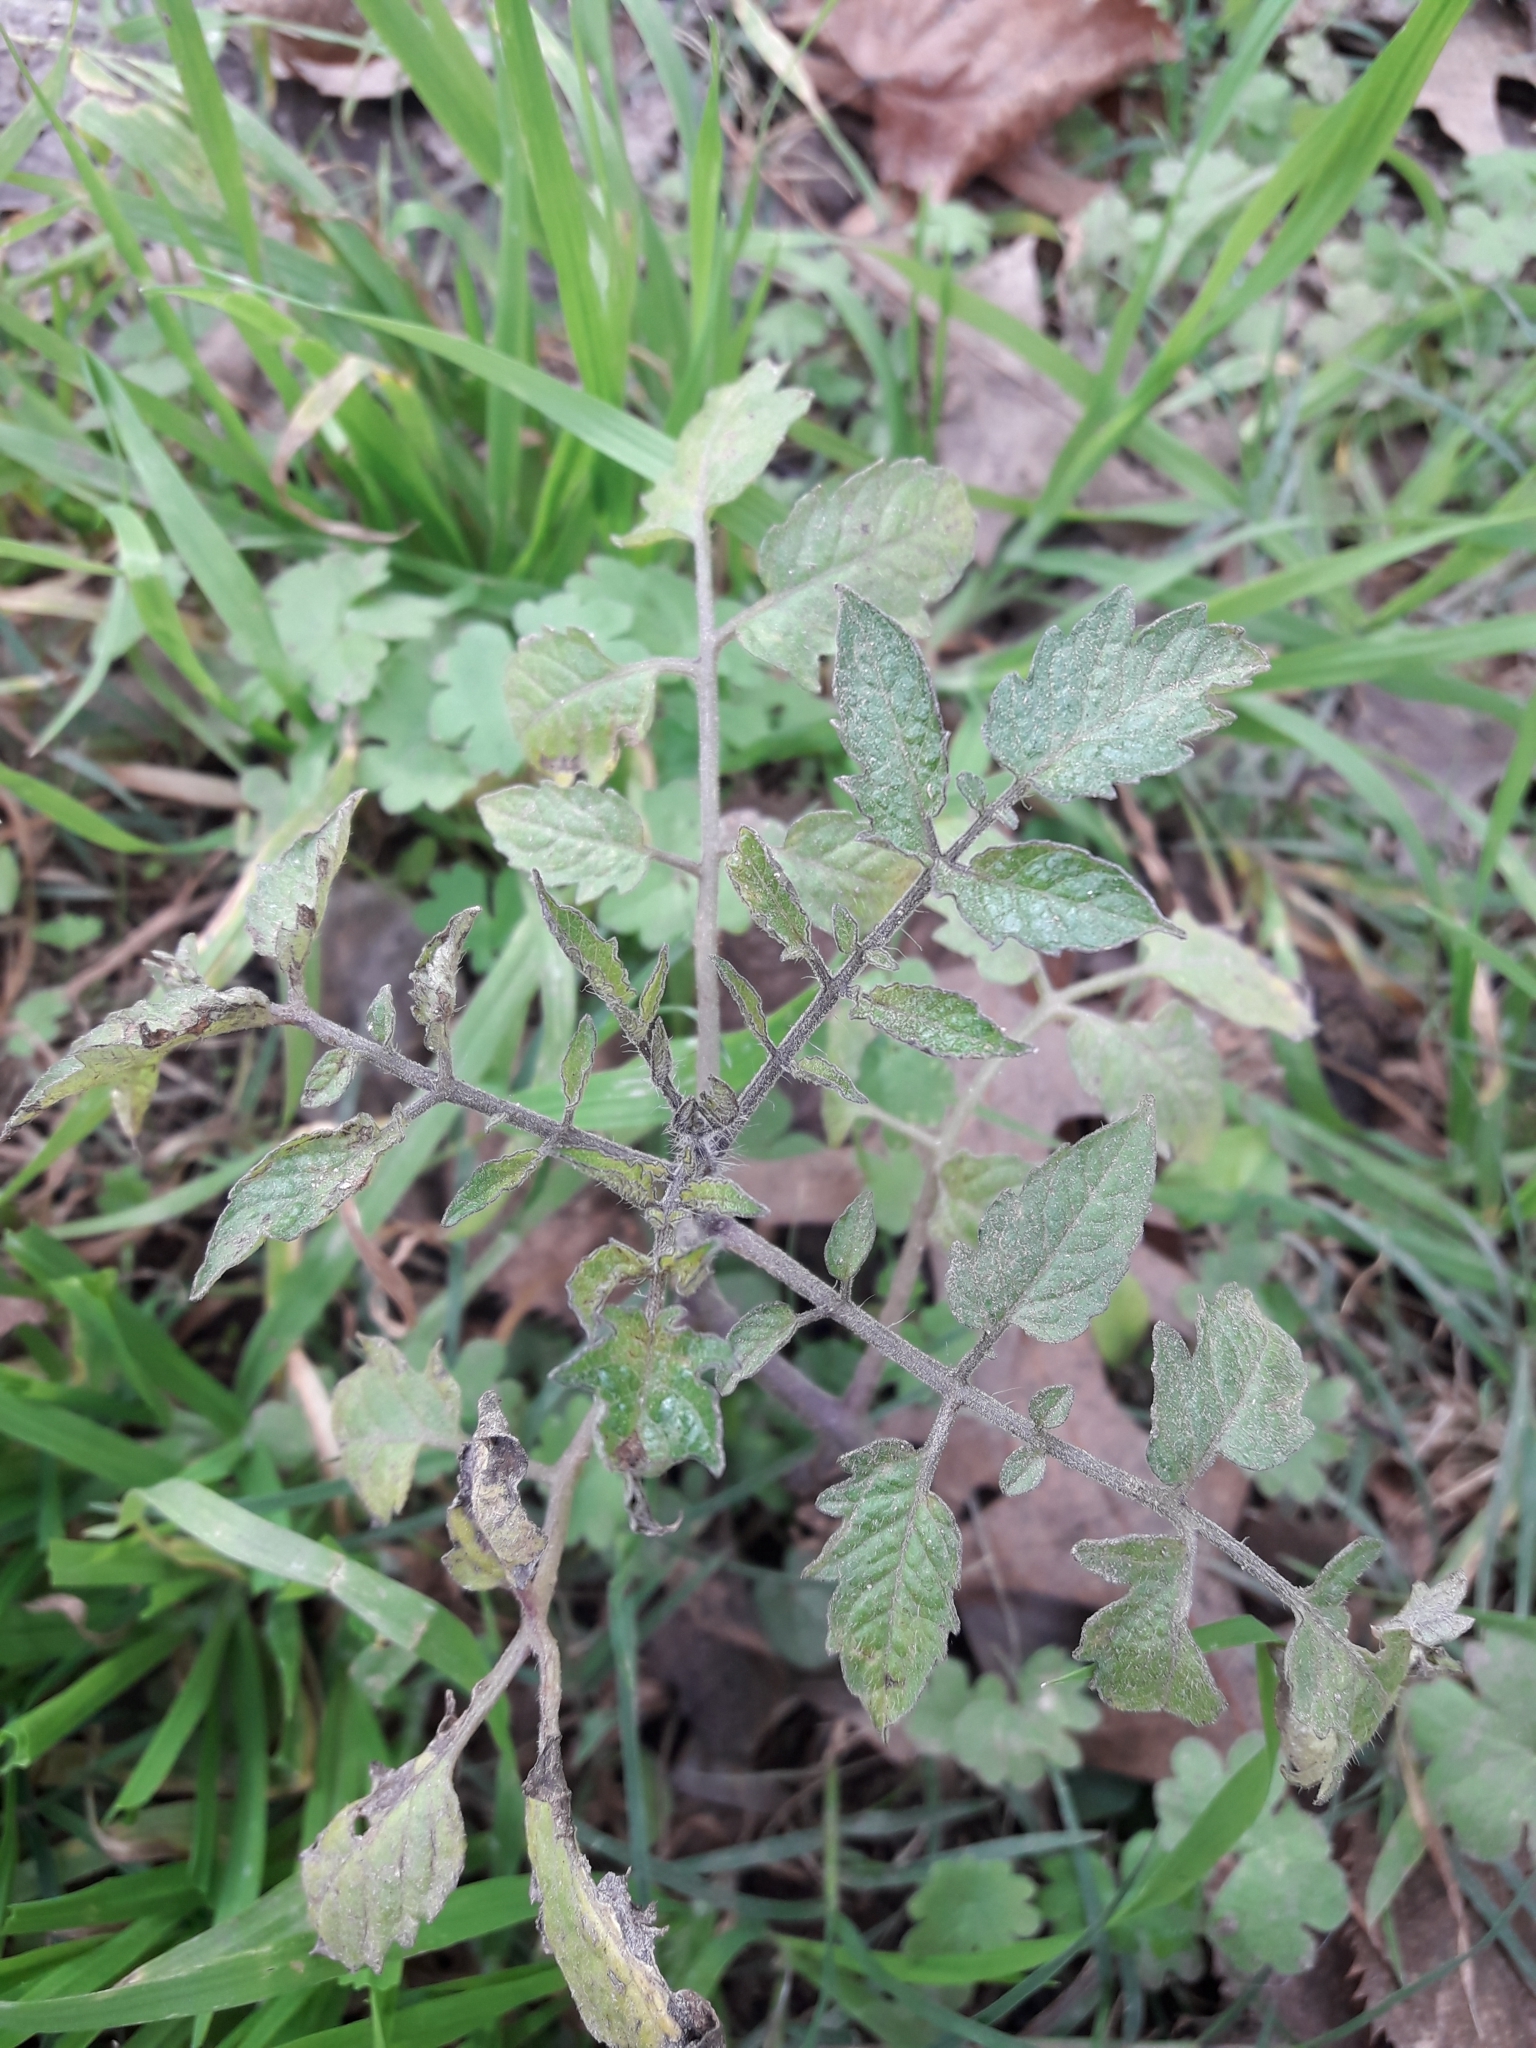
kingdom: Plantae
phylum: Tracheophyta
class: Magnoliopsida
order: Solanales
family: Solanaceae
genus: Solanum
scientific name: Solanum lycopersicum
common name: Garden tomato
